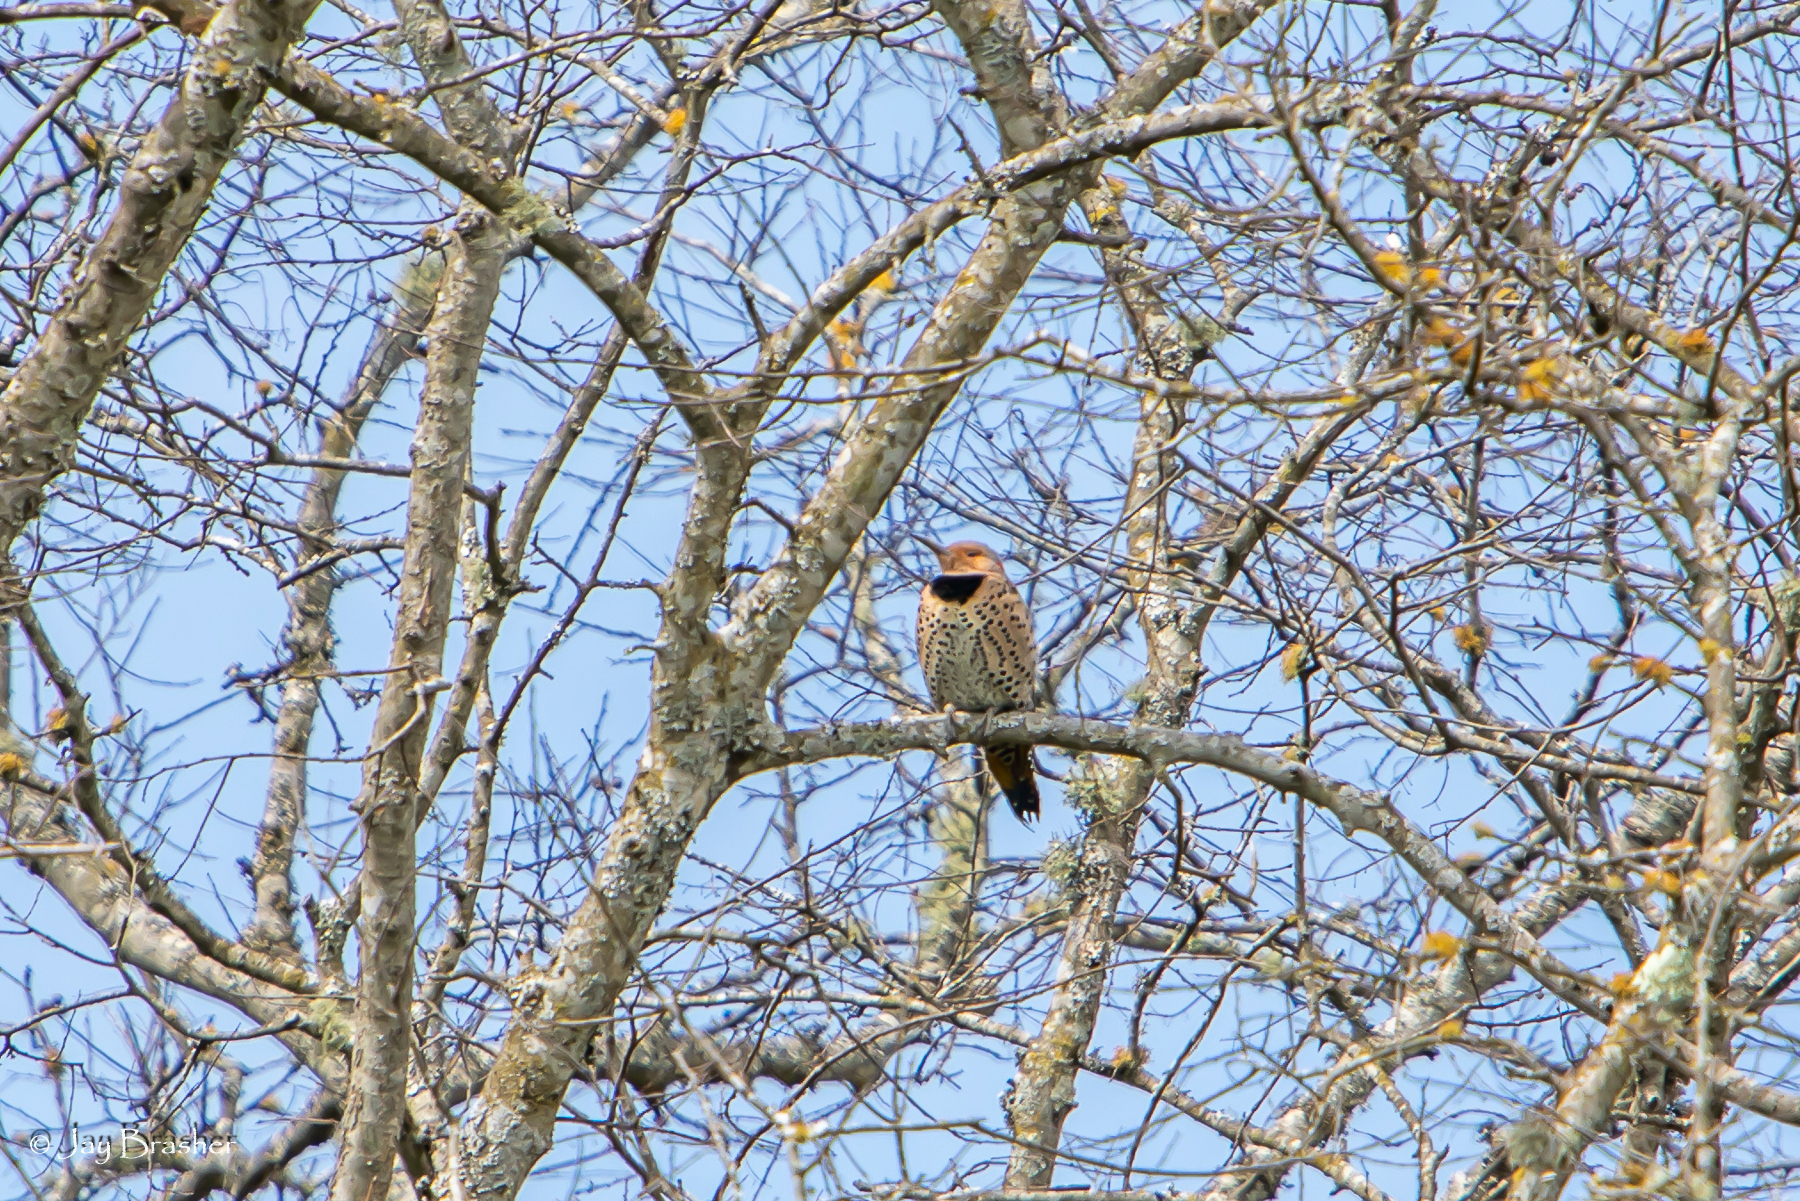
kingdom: Animalia
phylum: Chordata
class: Aves
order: Piciformes
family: Picidae
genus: Colaptes
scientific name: Colaptes auratus
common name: Northern flicker
